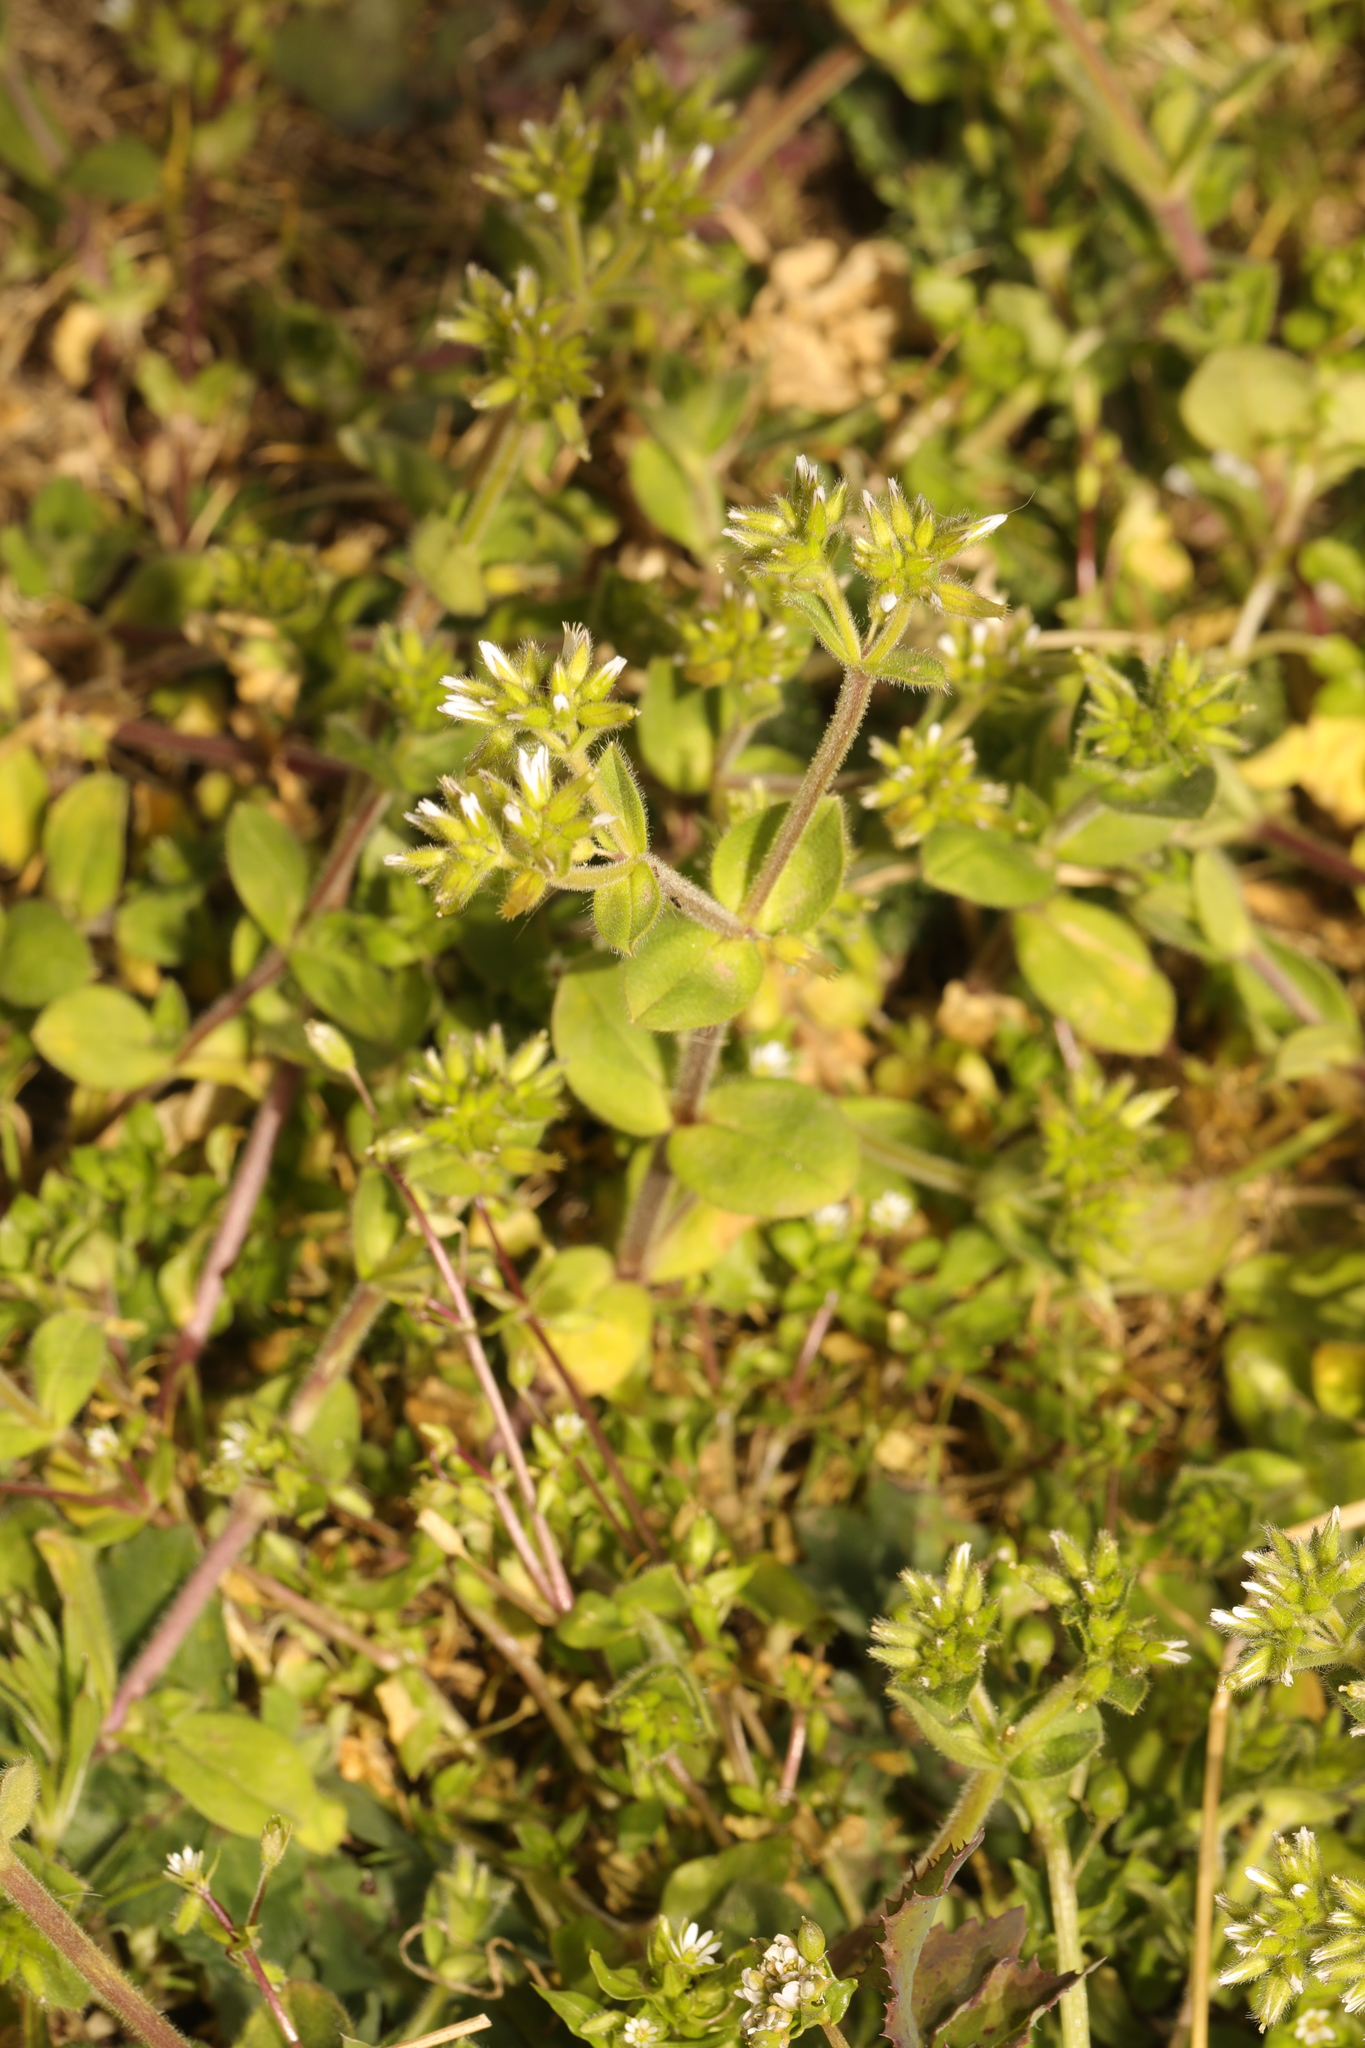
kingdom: Plantae
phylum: Tracheophyta
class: Magnoliopsida
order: Caryophyllales
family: Caryophyllaceae
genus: Cerastium
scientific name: Cerastium glomeratum
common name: Sticky chickweed
